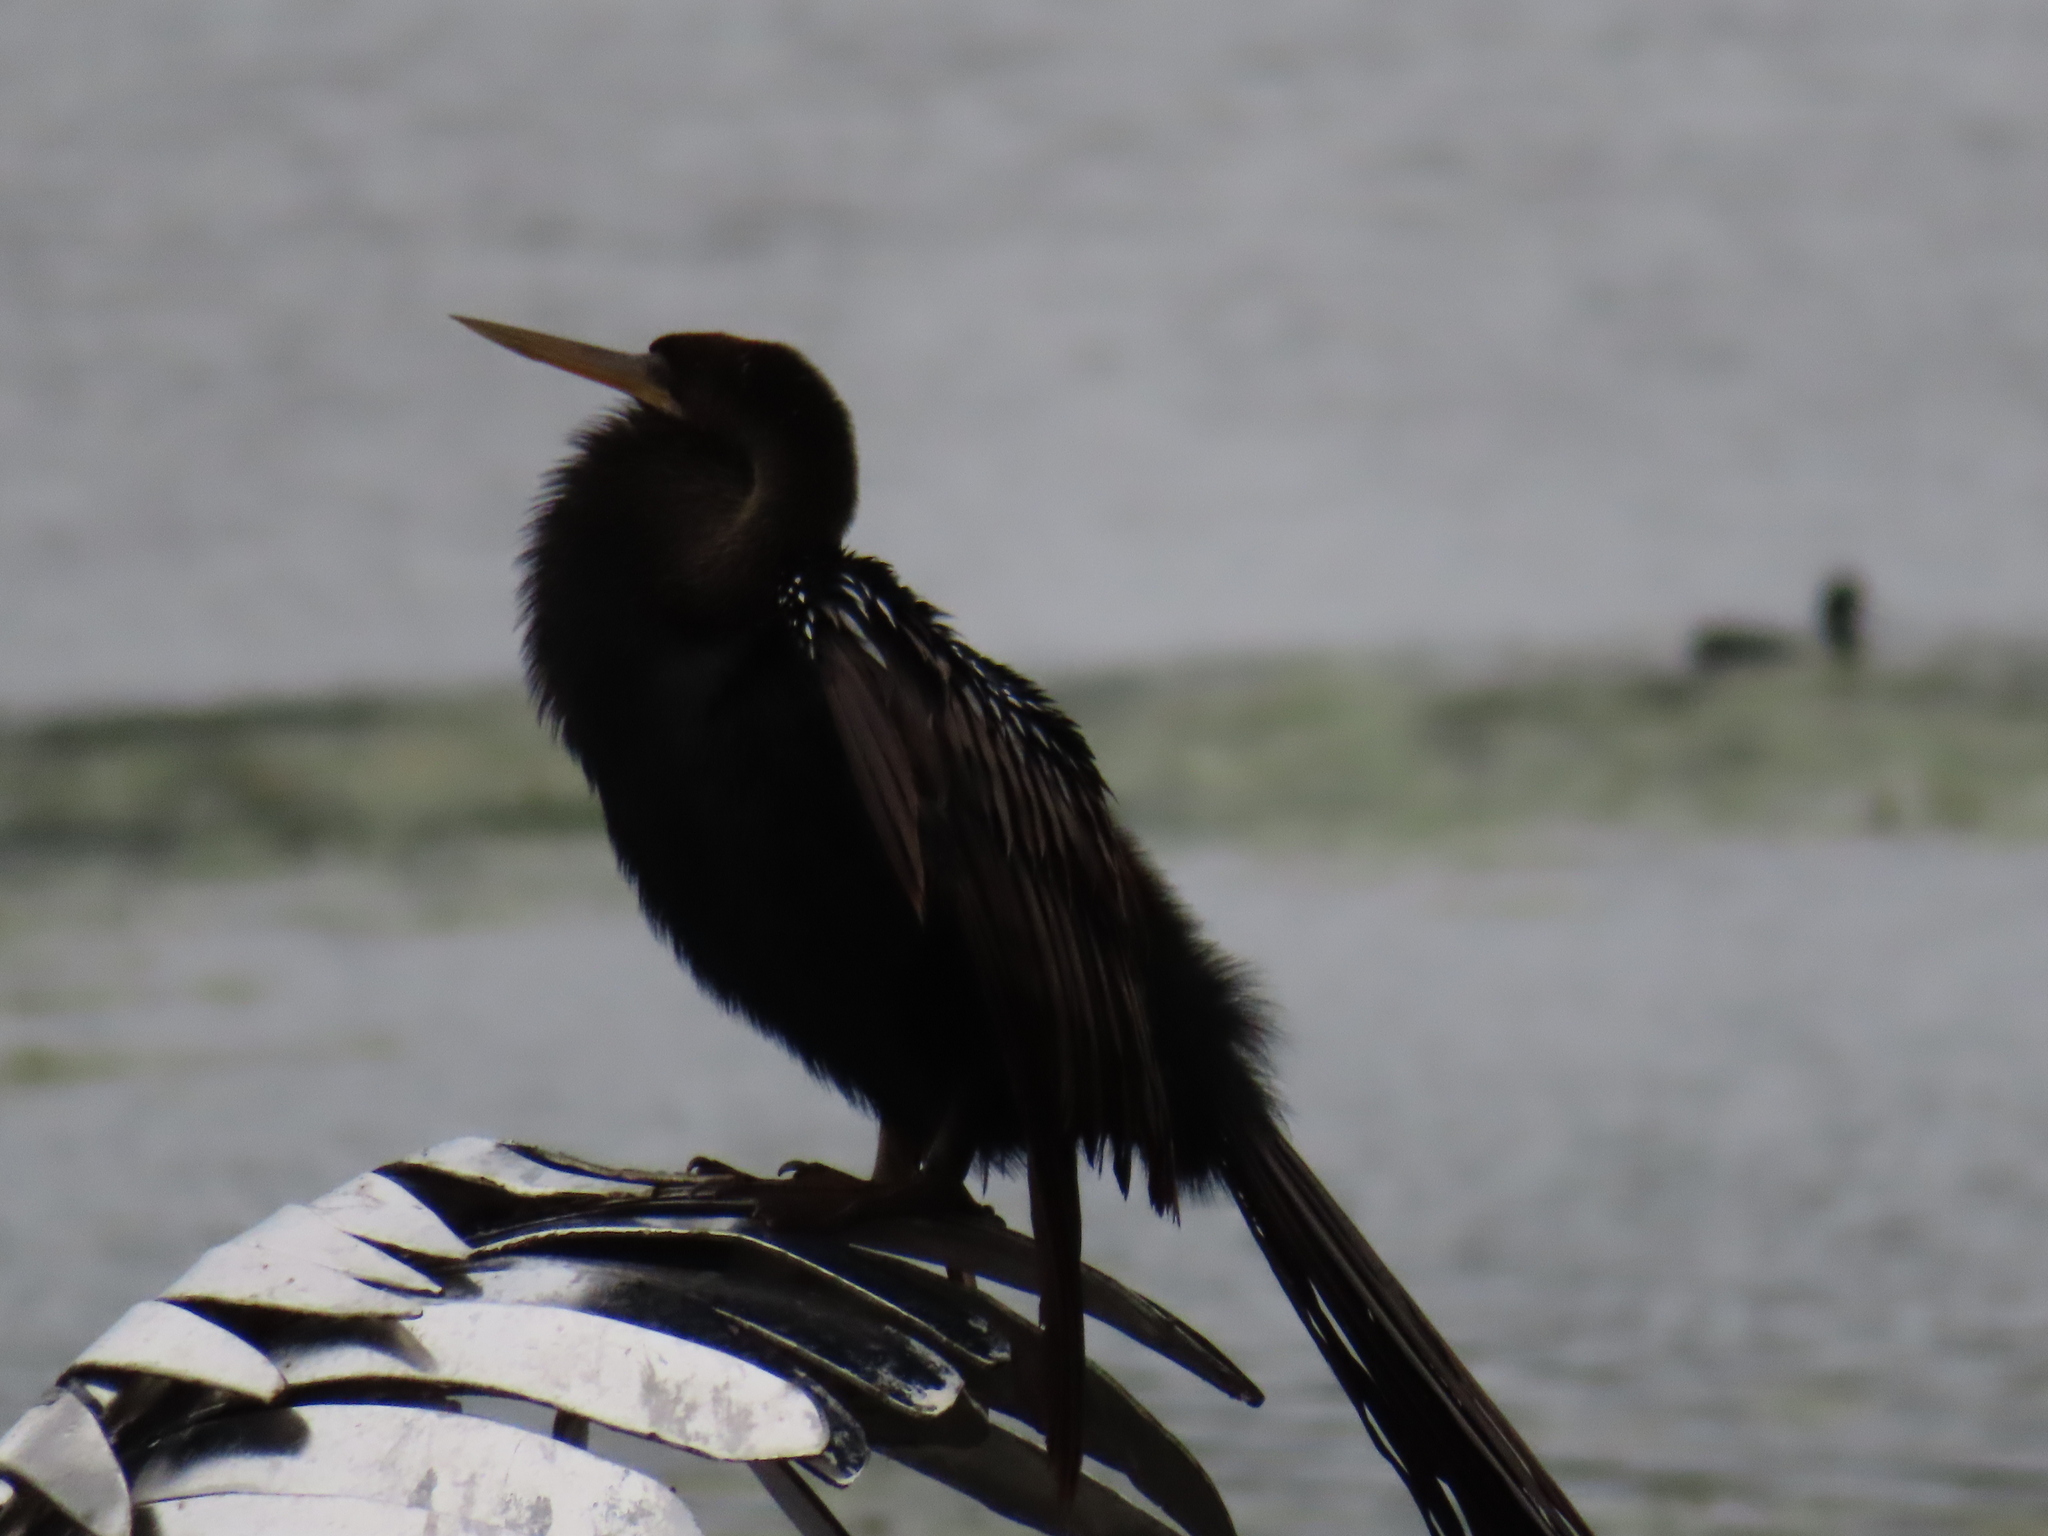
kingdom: Animalia
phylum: Chordata
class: Aves
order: Suliformes
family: Anhingidae
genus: Anhinga
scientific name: Anhinga anhinga
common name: Anhinga
